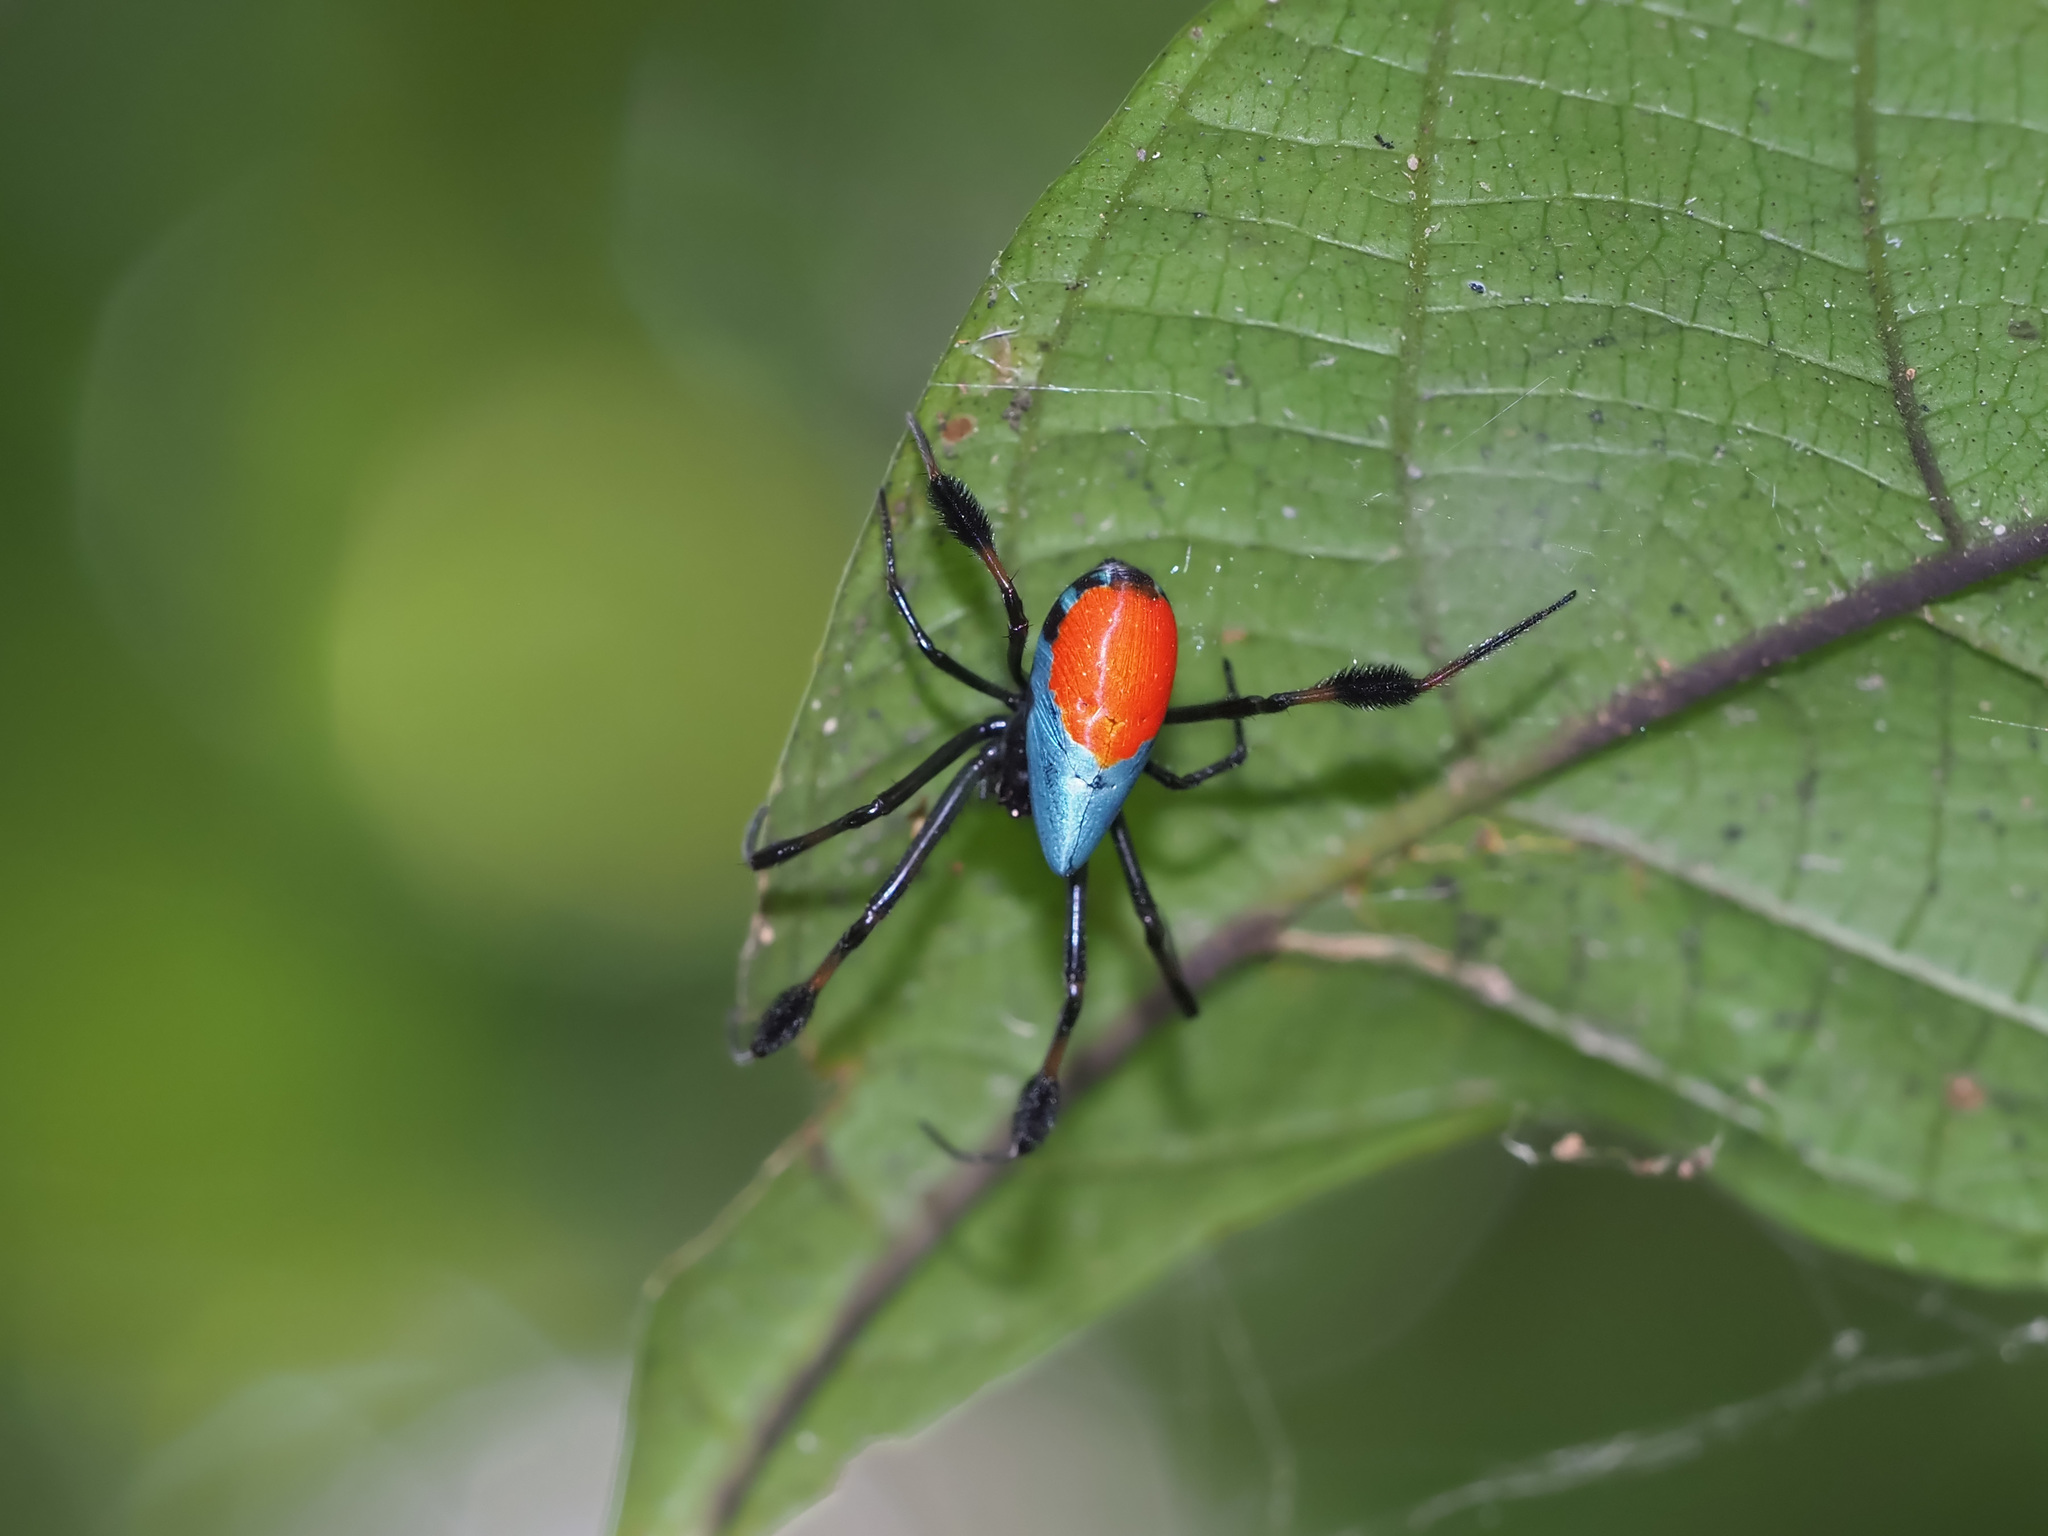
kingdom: Animalia
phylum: Arthropoda
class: Arachnida
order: Araneae
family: Tetragnathidae
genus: Leucauge
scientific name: Leucauge sarawakensis
